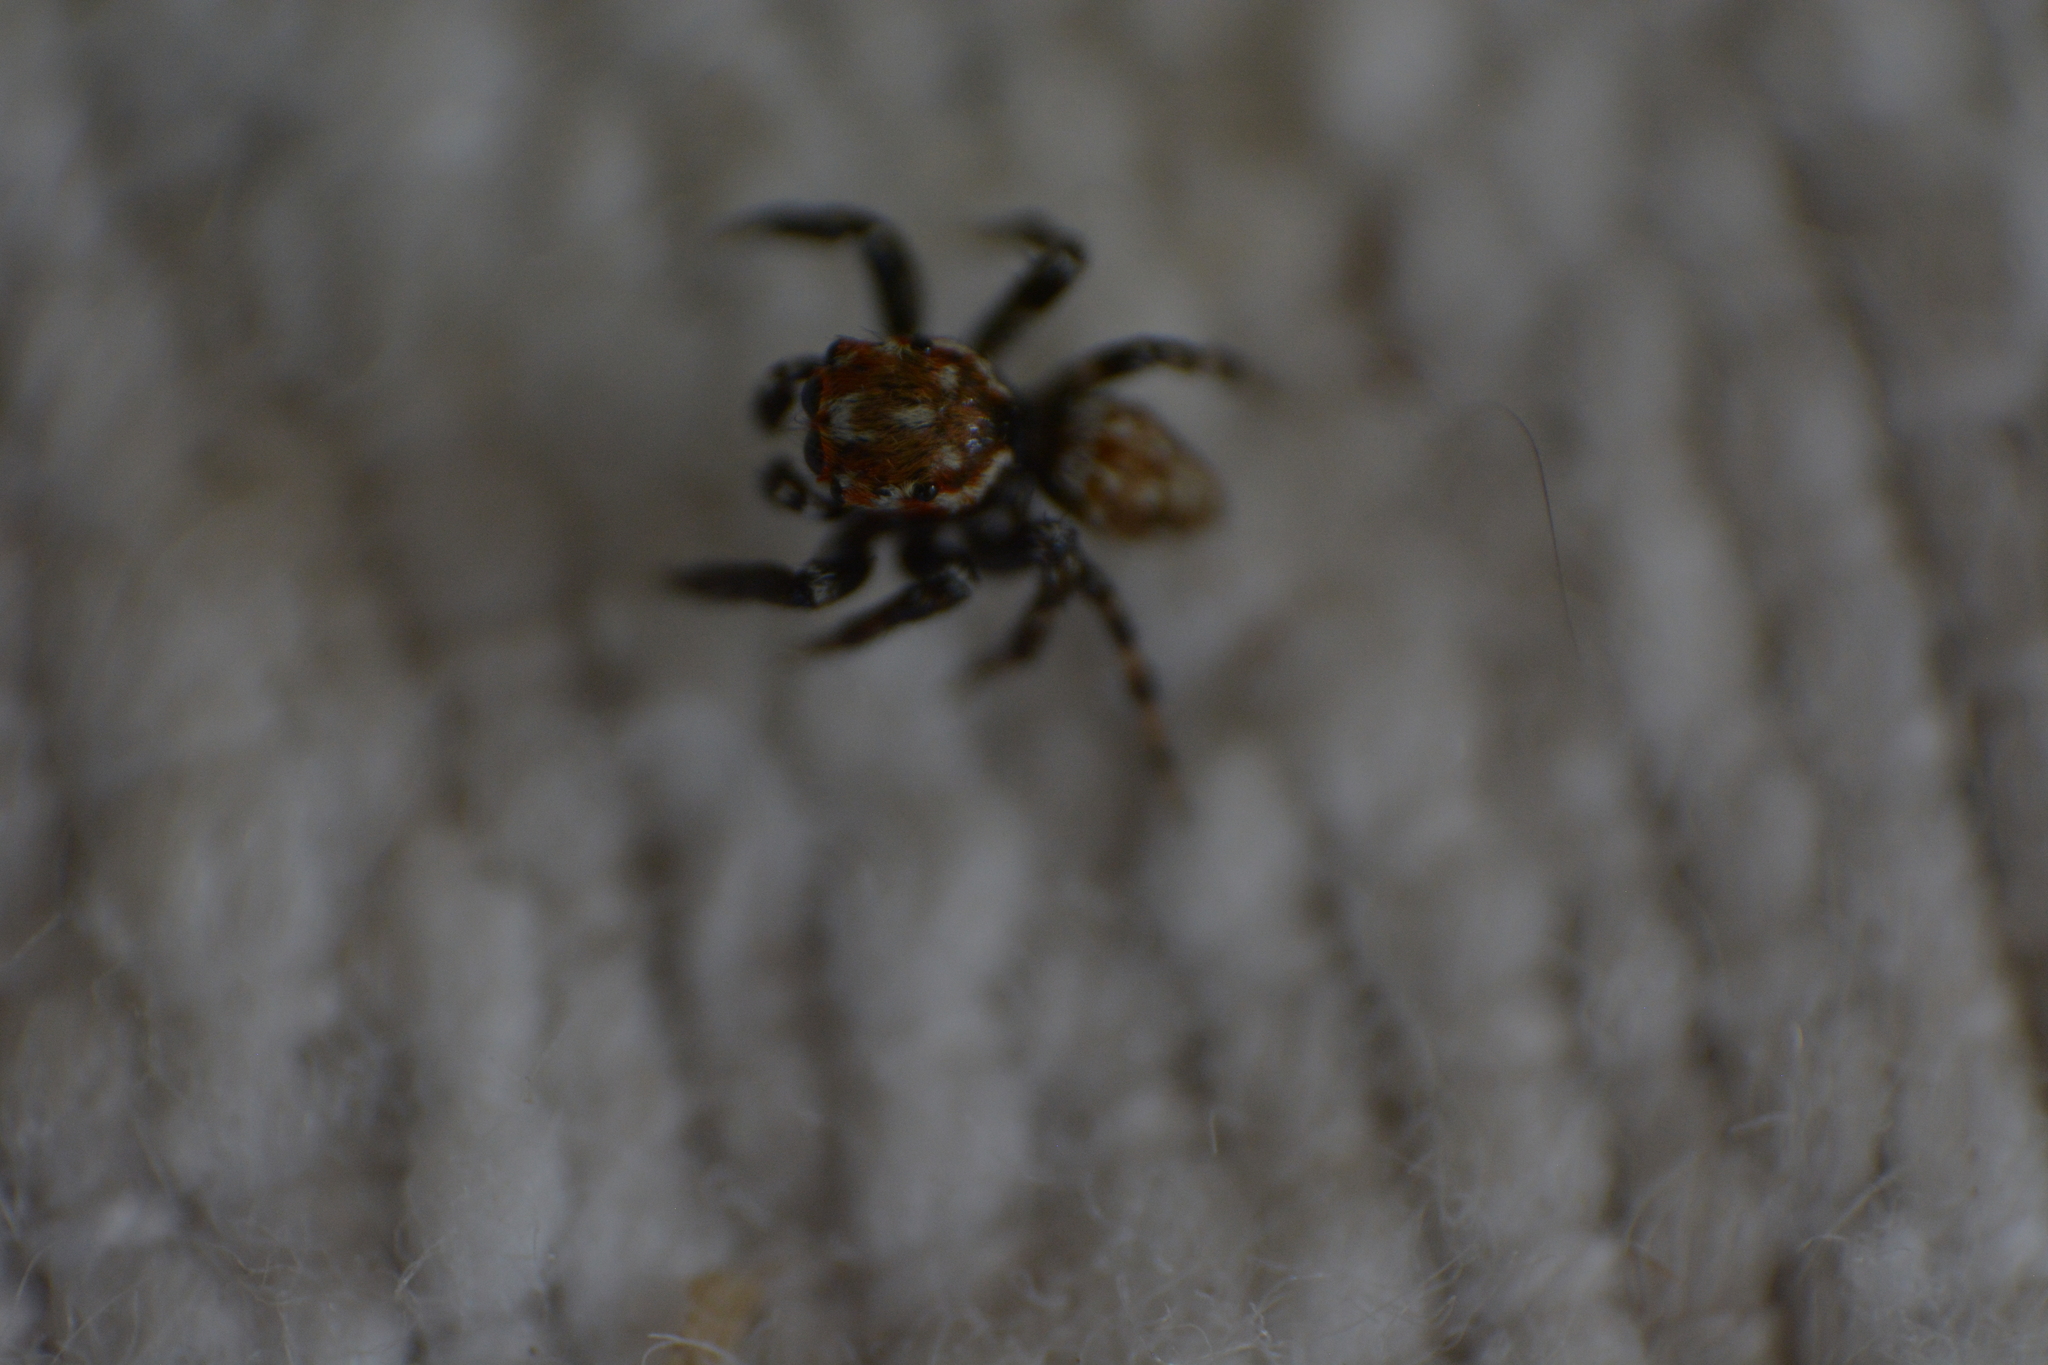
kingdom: Animalia
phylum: Arthropoda
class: Arachnida
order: Araneae
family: Salticidae
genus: Evarcha
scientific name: Evarcha prosimilis
